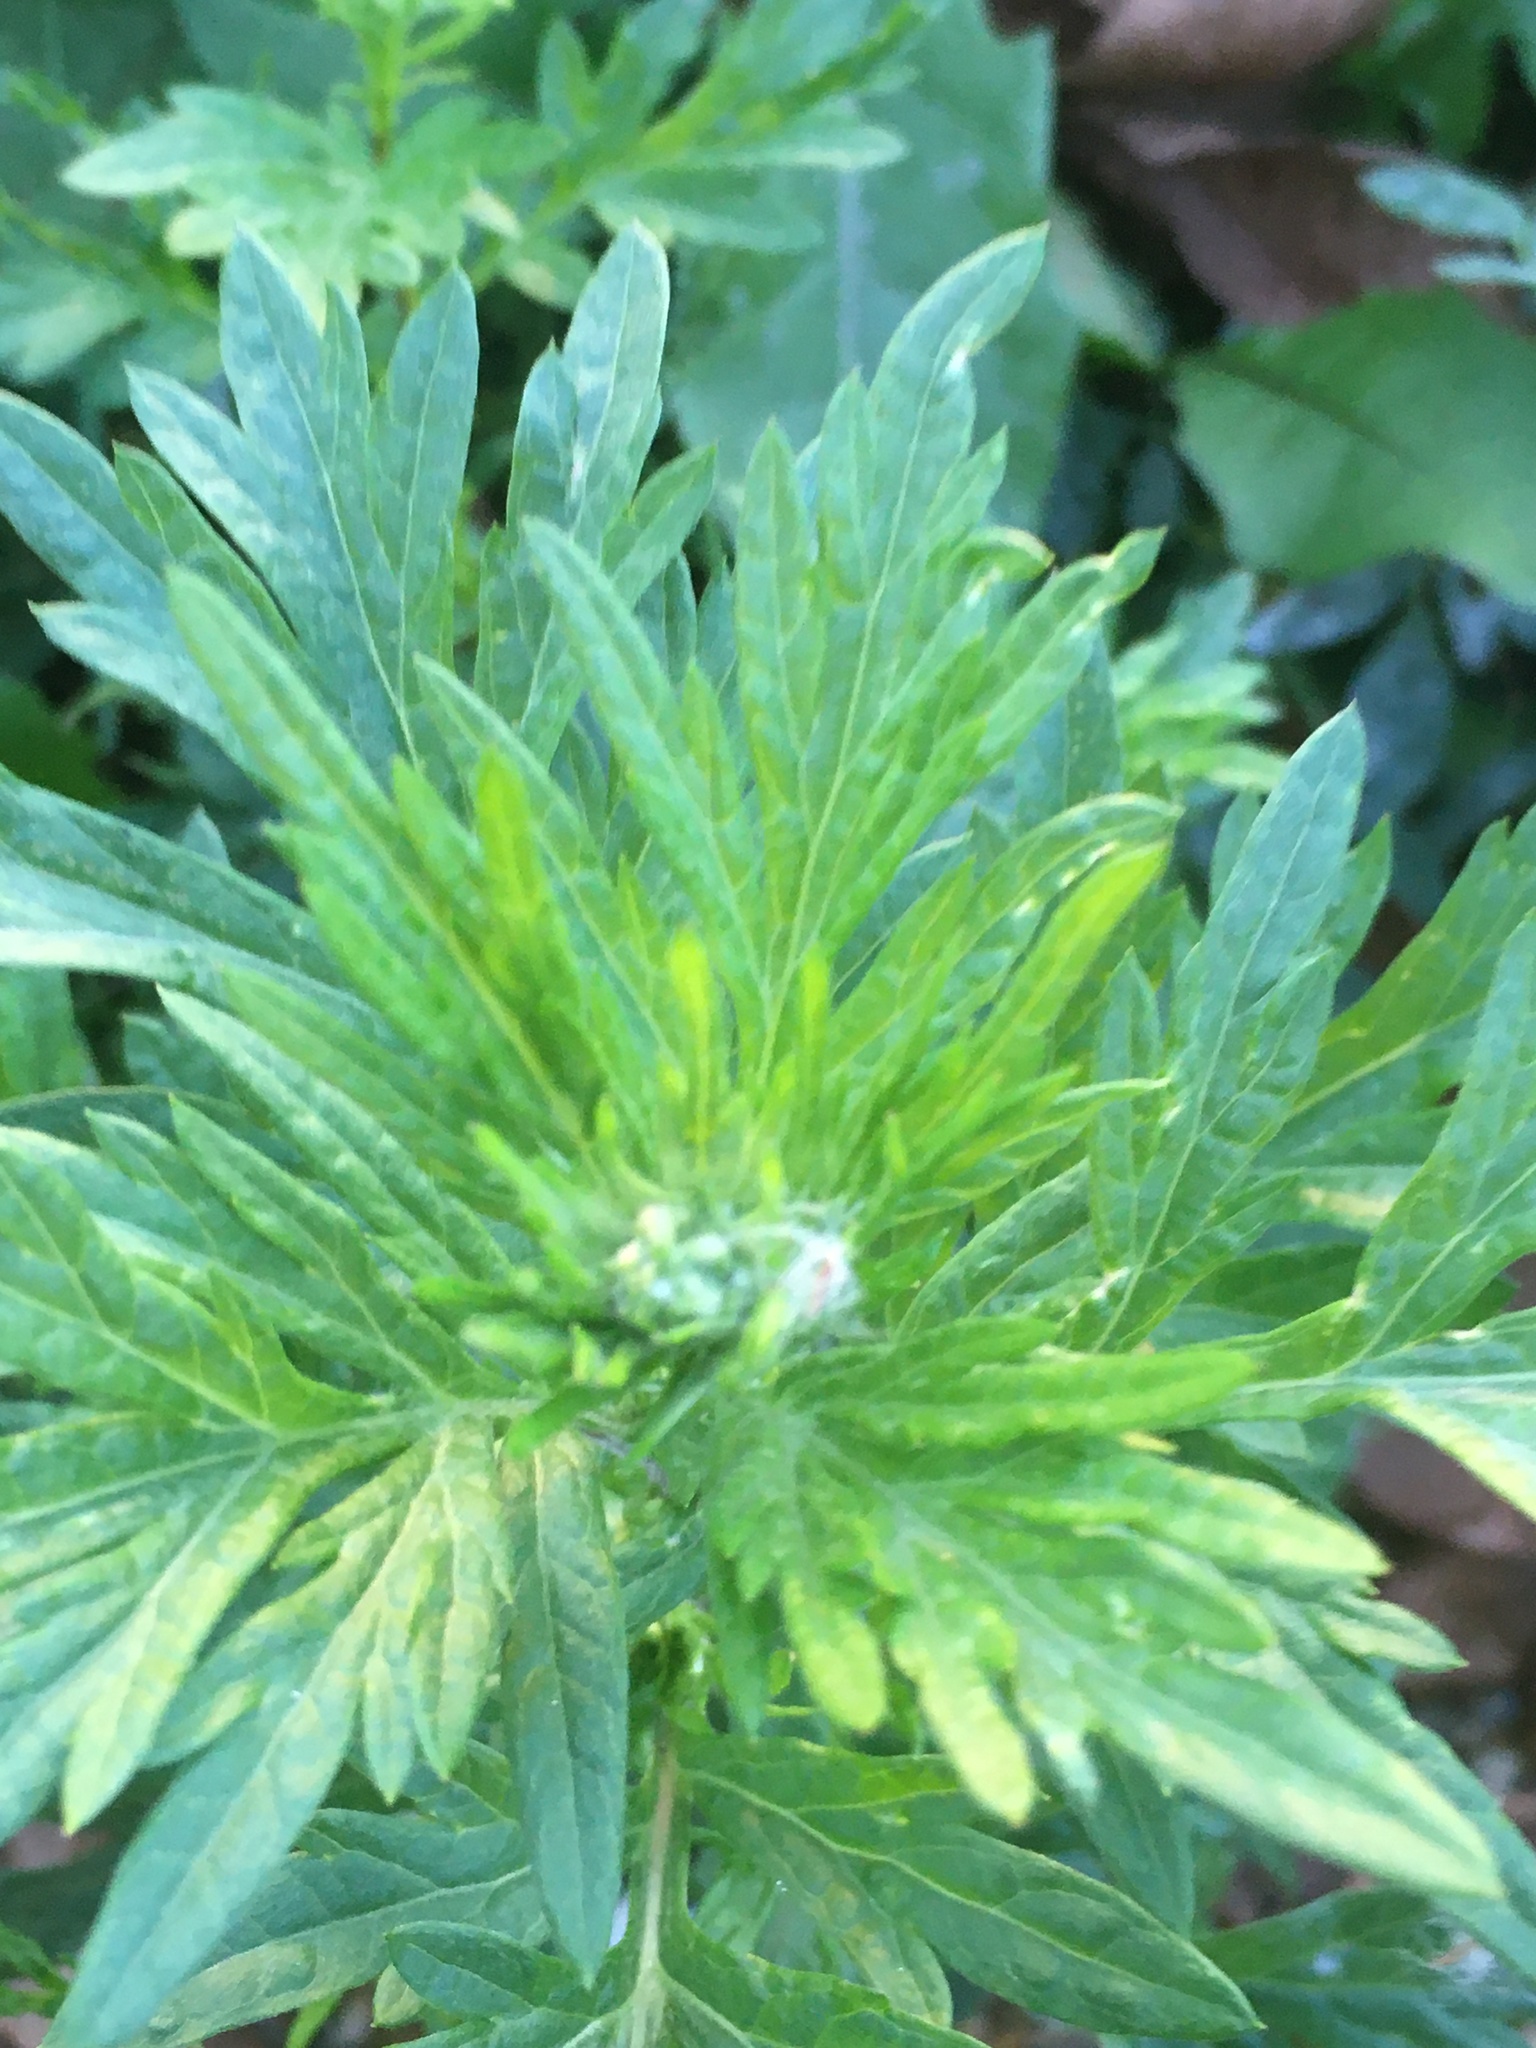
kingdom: Plantae
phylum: Tracheophyta
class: Magnoliopsida
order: Asterales
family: Asteraceae
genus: Artemisia
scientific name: Artemisia vulgaris
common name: Mugwort
